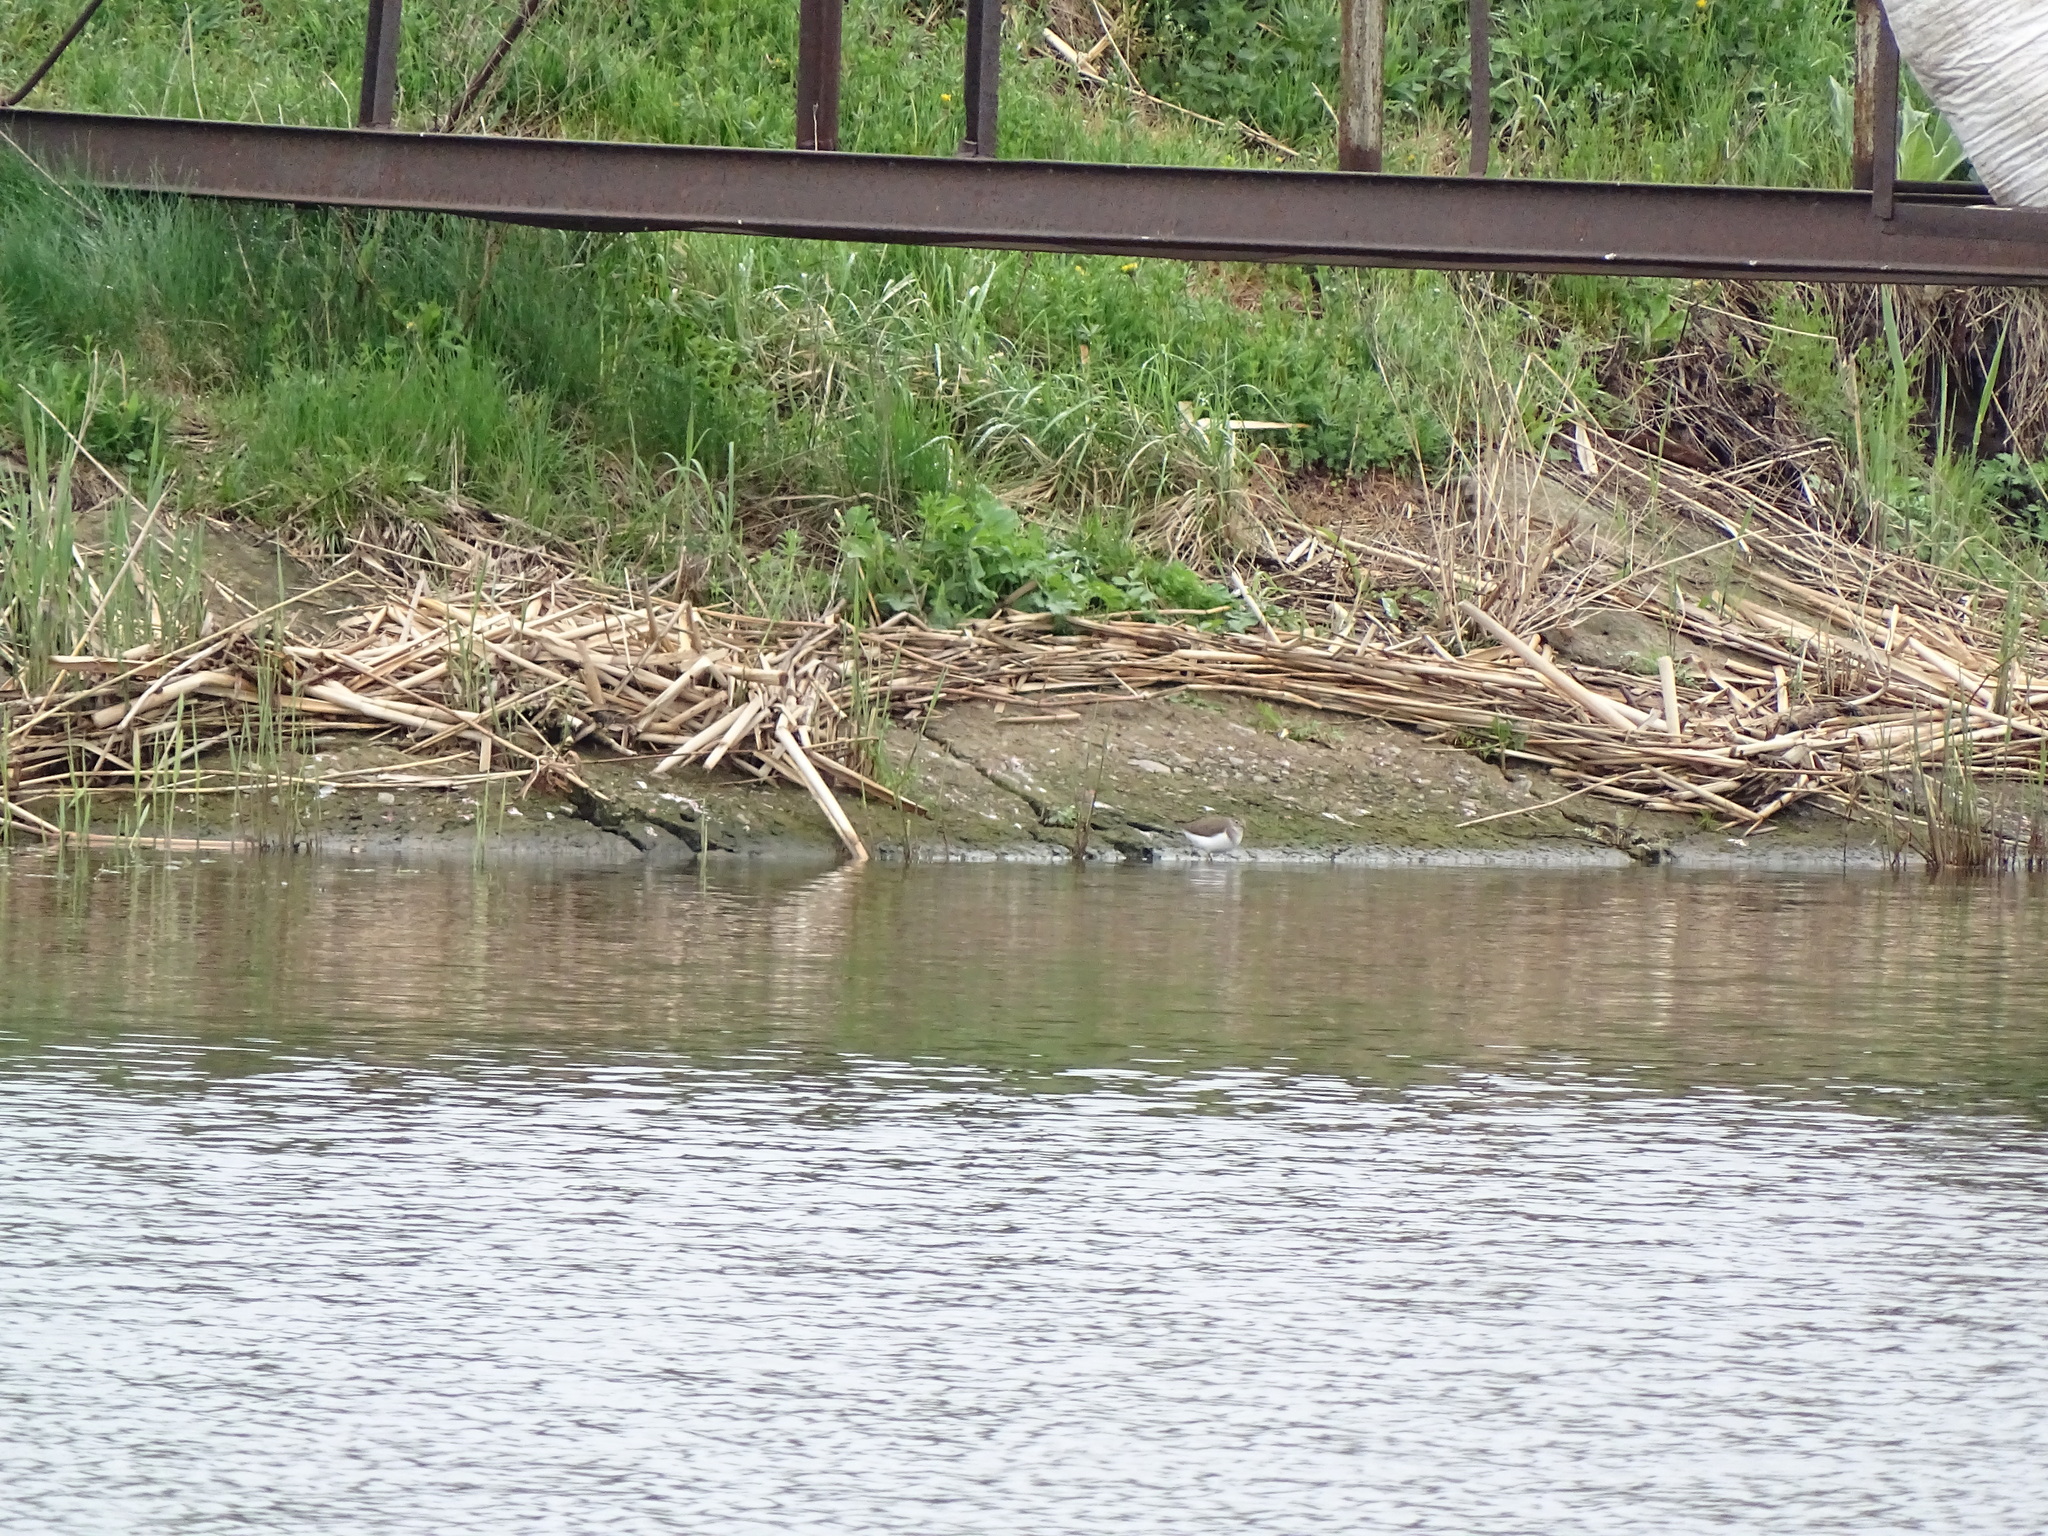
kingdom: Animalia
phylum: Chordata
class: Aves
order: Charadriiformes
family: Scolopacidae
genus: Actitis
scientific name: Actitis hypoleucos
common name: Common sandpiper
